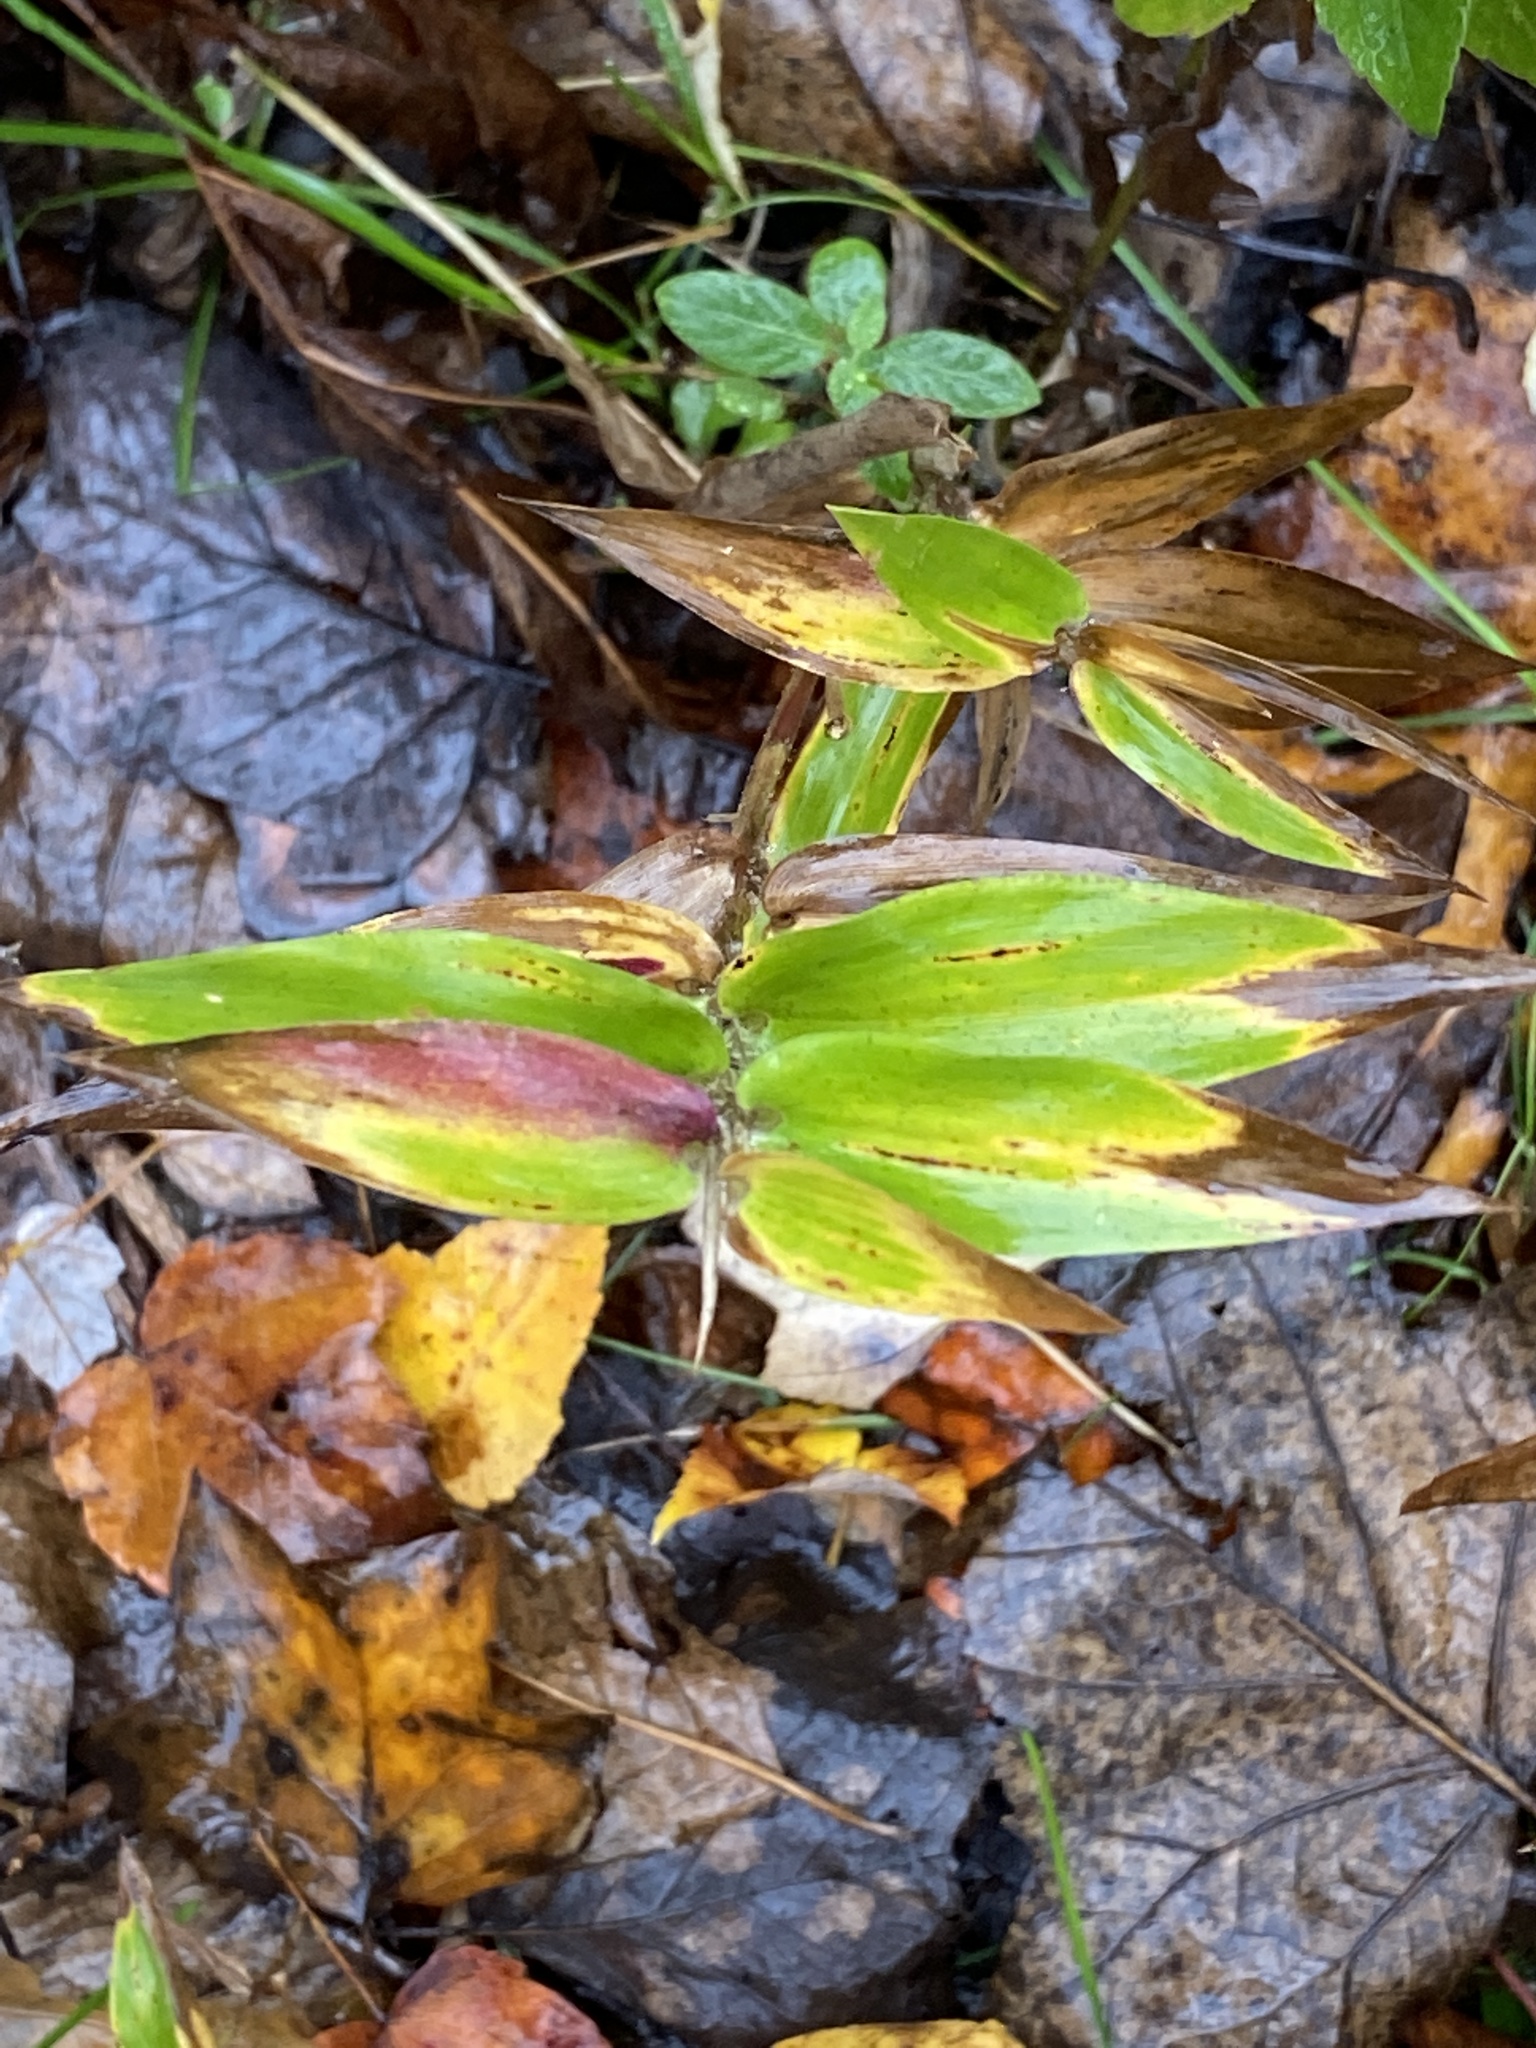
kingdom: Plantae
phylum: Tracheophyta
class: Liliopsida
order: Poales
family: Poaceae
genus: Dichanthelium
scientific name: Dichanthelium clandestinum
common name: Deer-tongue grass
